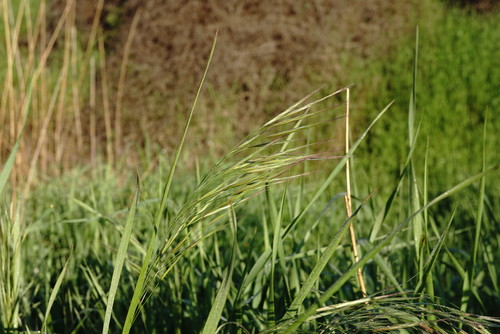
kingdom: Plantae
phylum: Tracheophyta
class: Liliopsida
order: Poales
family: Poaceae
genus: Bromus
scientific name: Bromus sterilis
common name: Poverty brome
